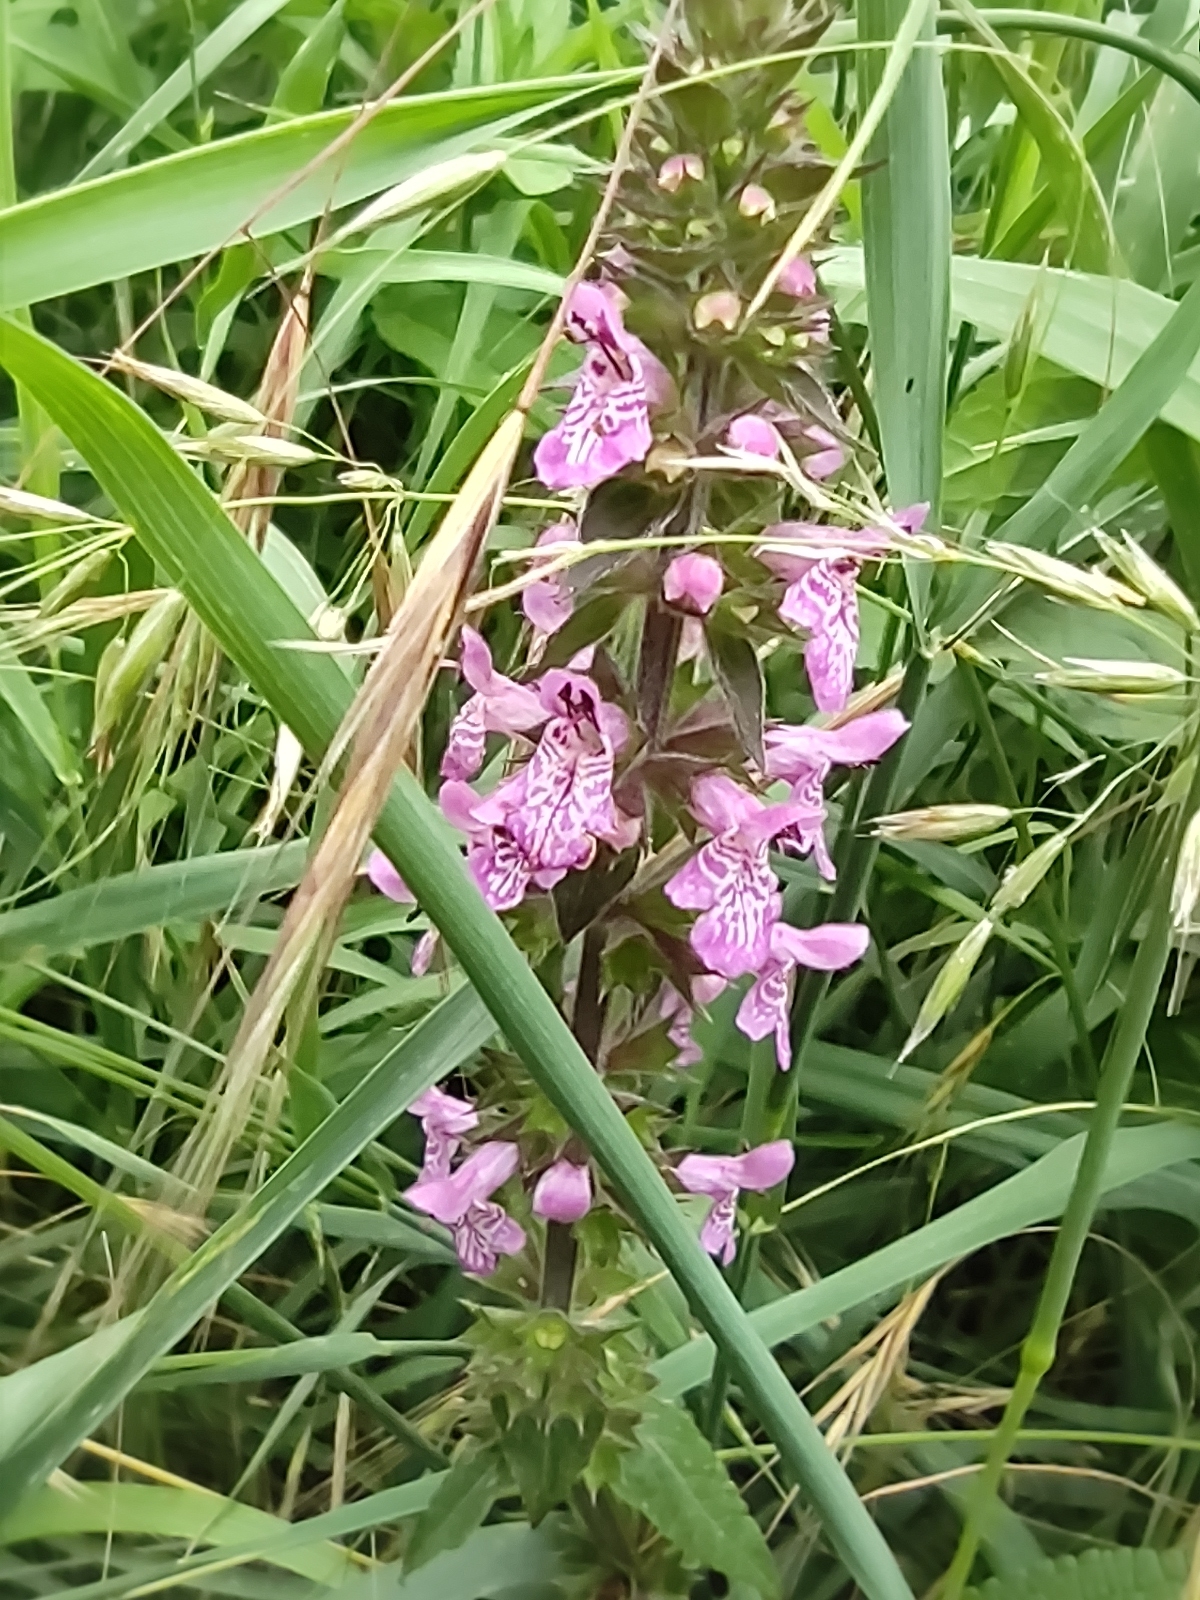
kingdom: Plantae
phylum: Tracheophyta
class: Magnoliopsida
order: Lamiales
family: Lamiaceae
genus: Stachys
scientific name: Stachys palustris
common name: Marsh woundwort
